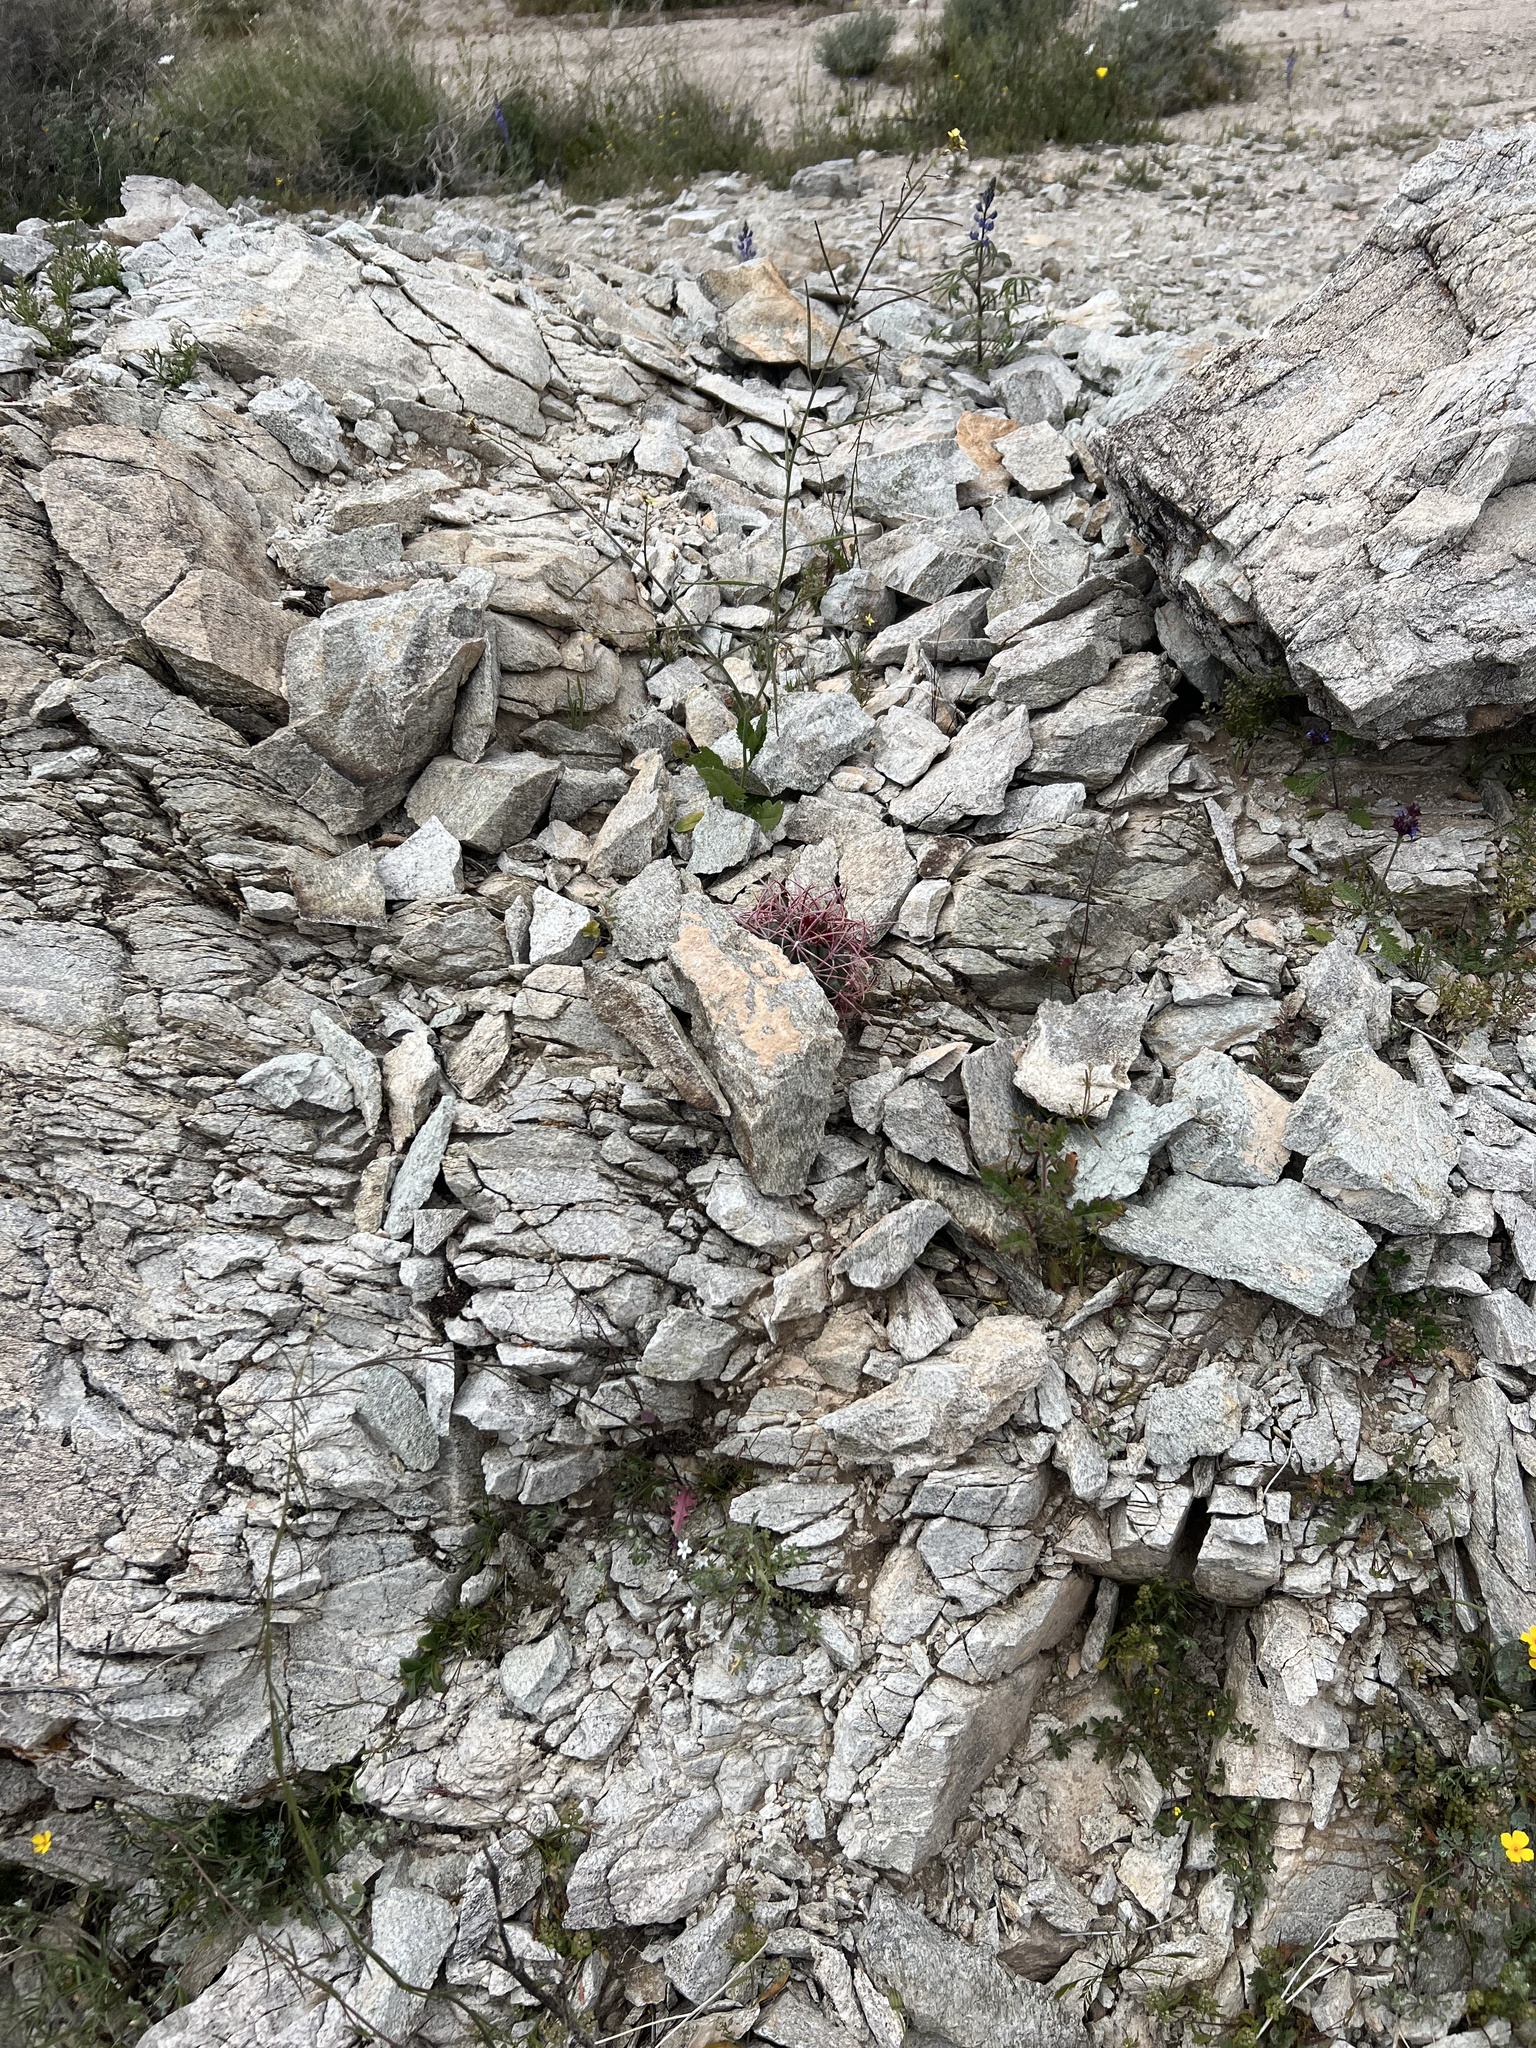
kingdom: Plantae
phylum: Tracheophyta
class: Magnoliopsida
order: Caryophyllales
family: Cactaceae
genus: Ferocactus
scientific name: Ferocactus cylindraceus
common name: California barrel cactus
